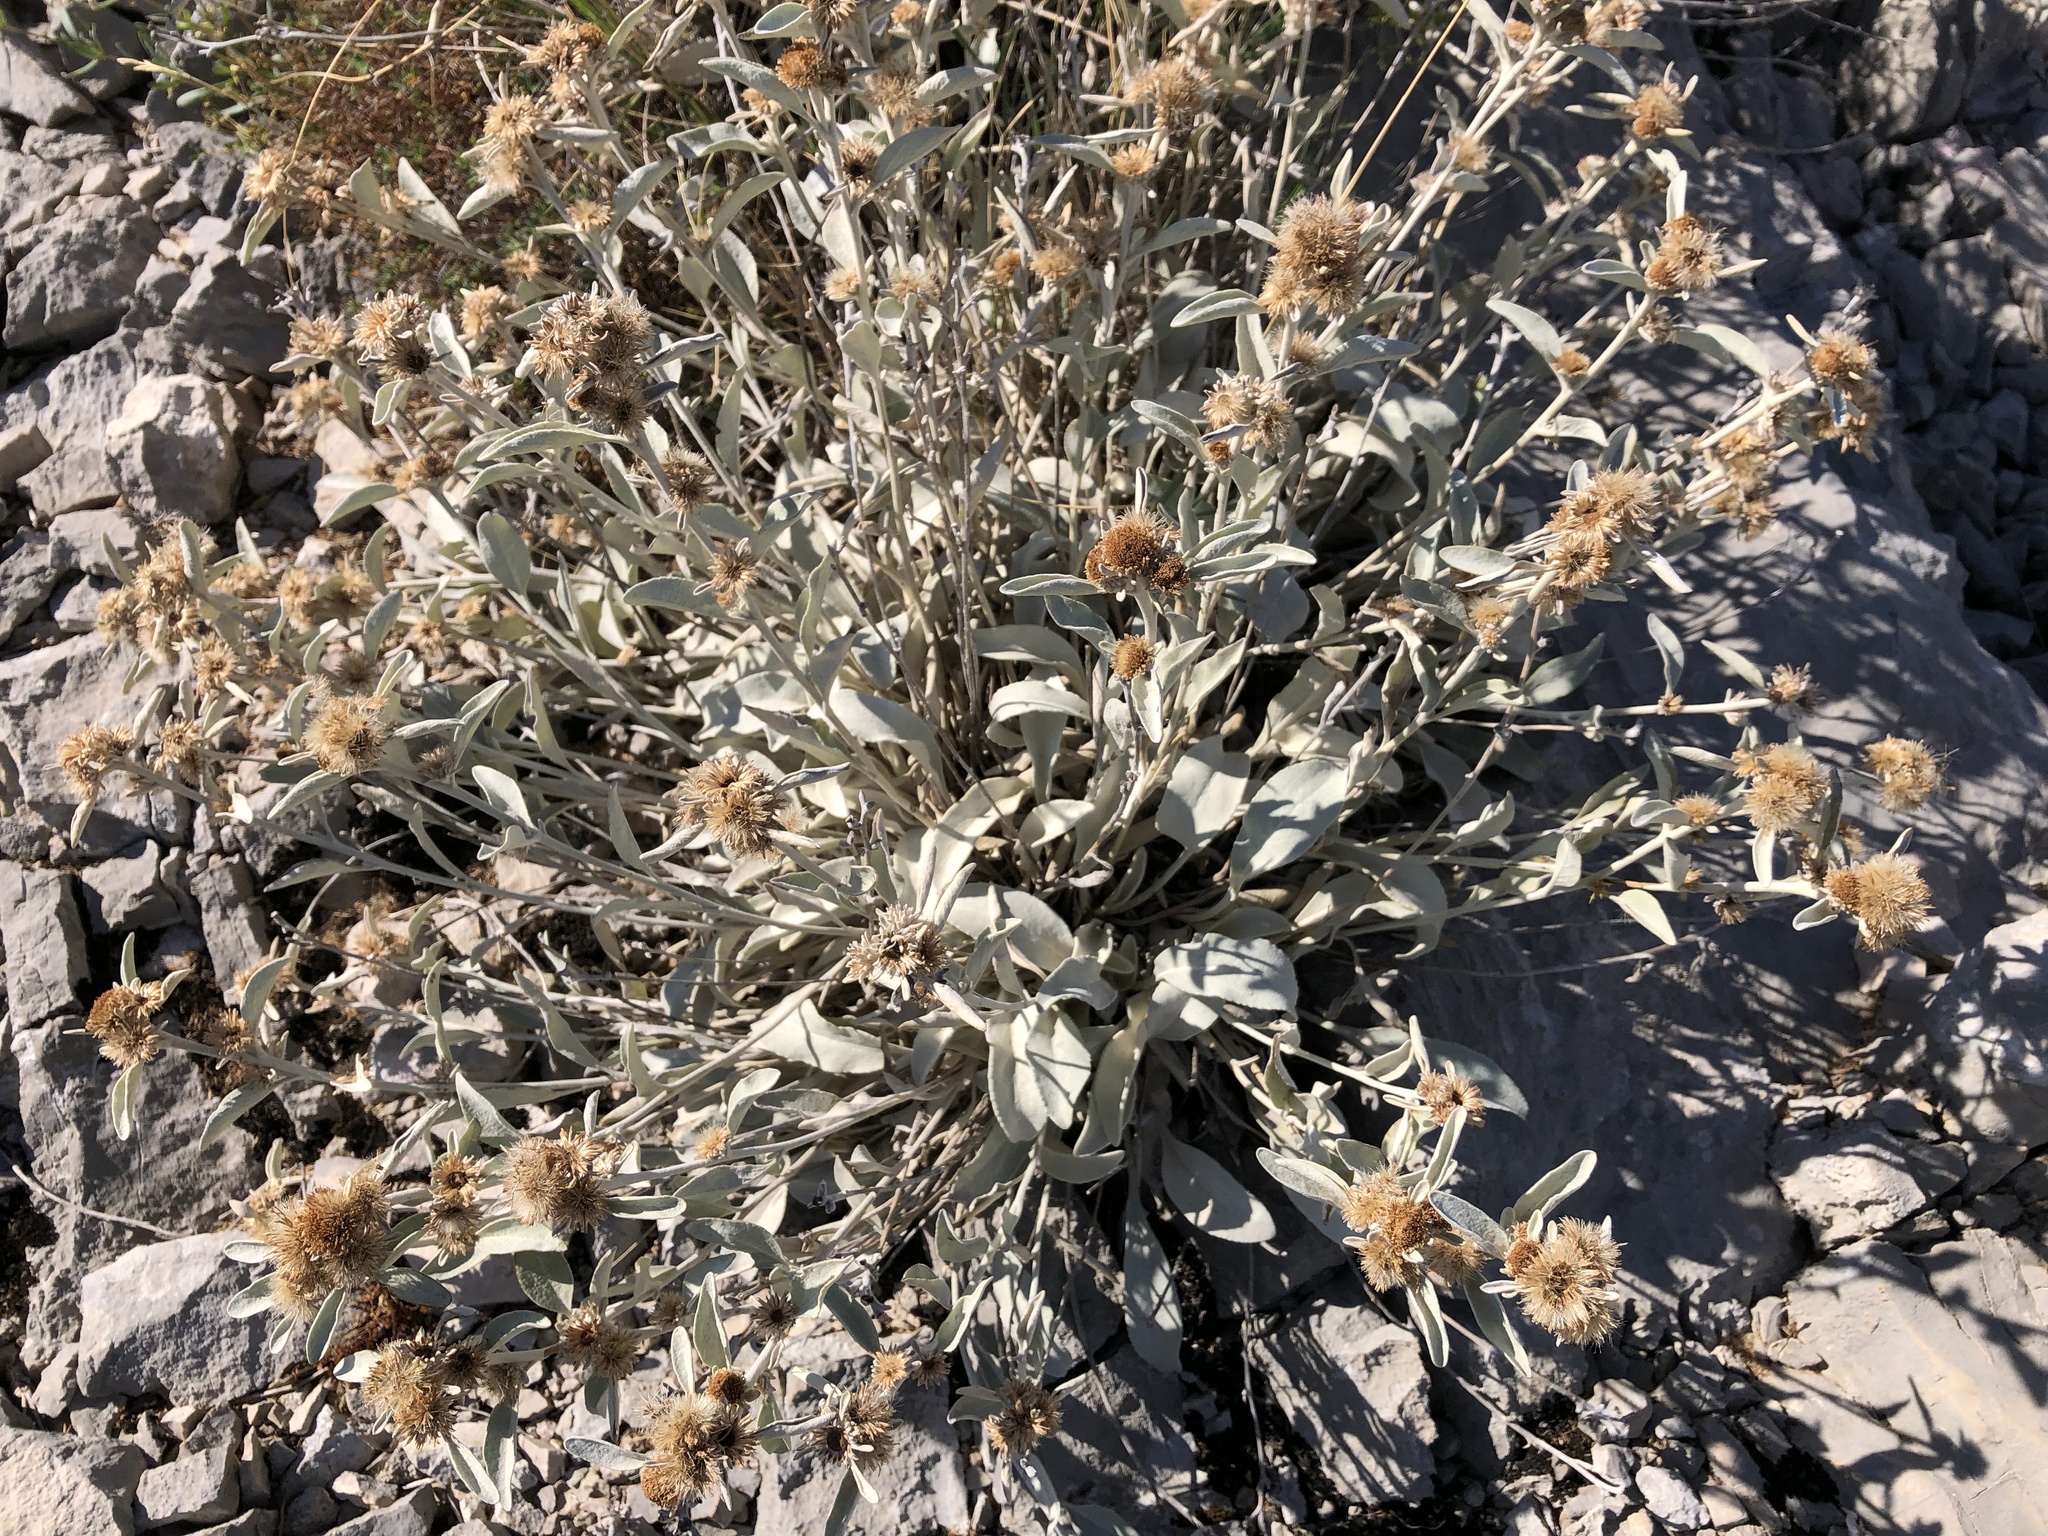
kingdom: Plantae
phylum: Tracheophyta
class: Magnoliopsida
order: Asterales
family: Asteraceae
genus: Pentanema
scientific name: Pentanema verbascifolium
